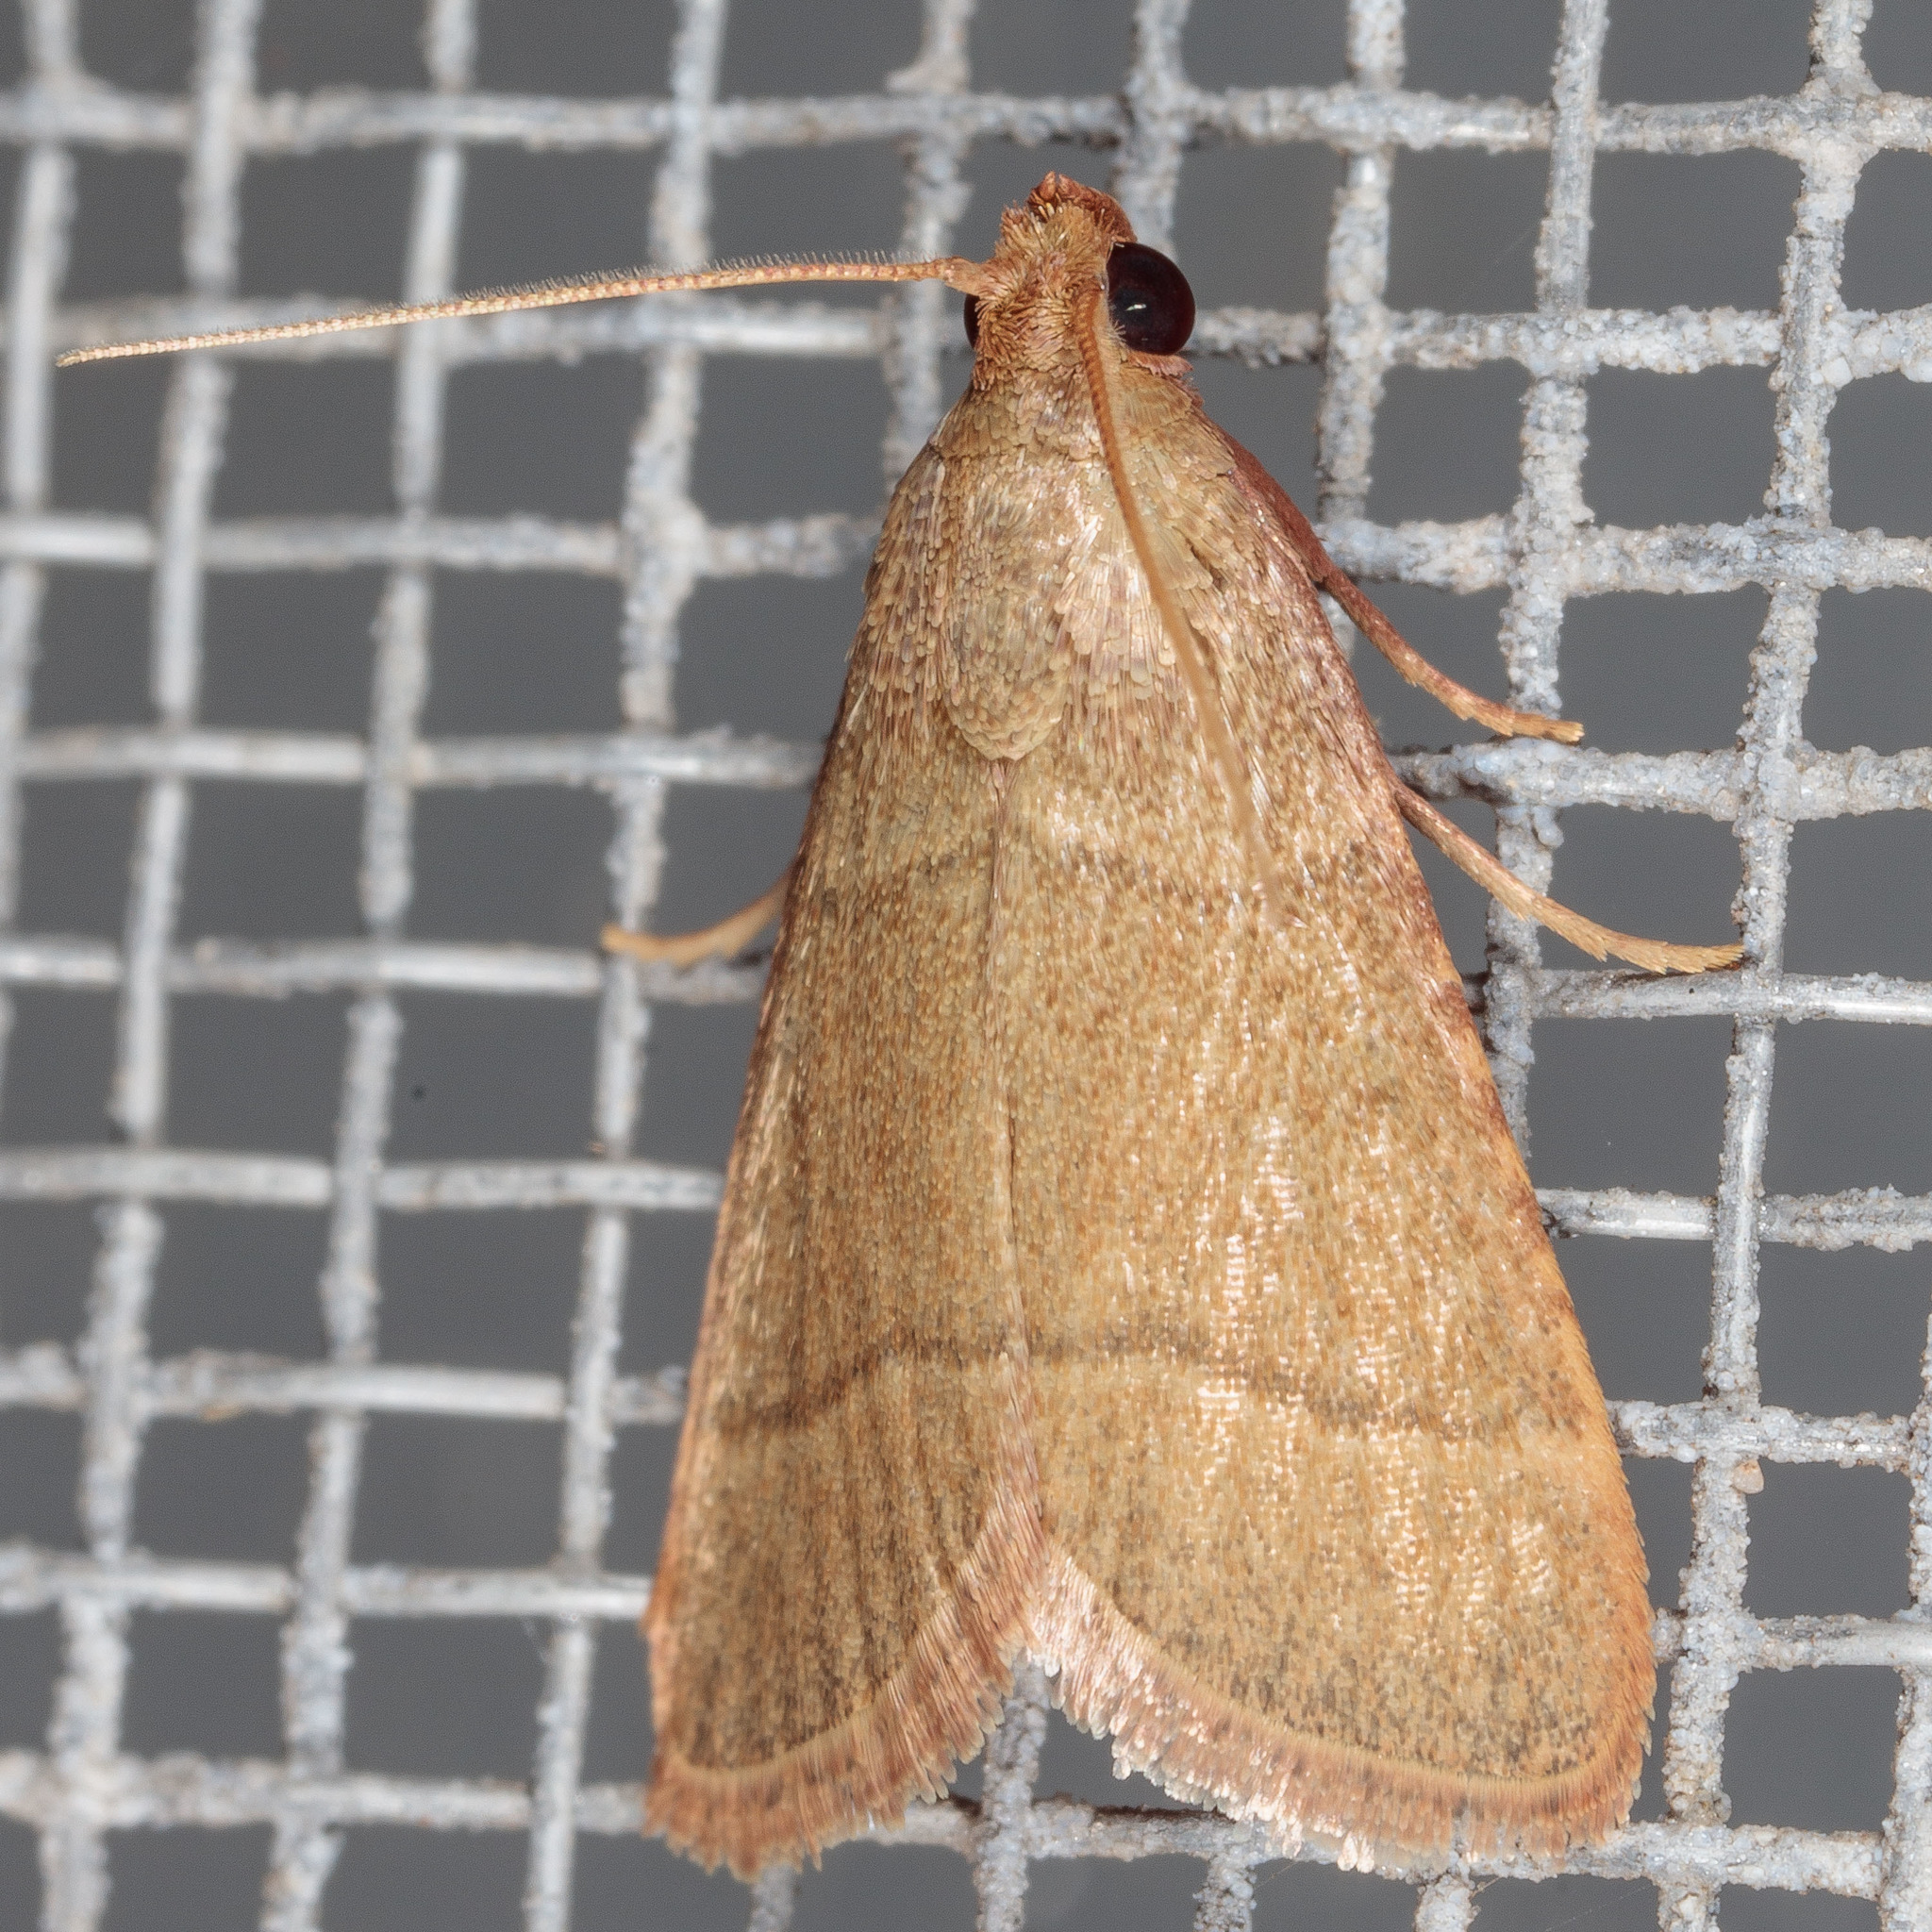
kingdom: Animalia
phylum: Arthropoda
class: Insecta
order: Lepidoptera
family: Pyralidae
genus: Hypsopygia
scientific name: Hypsopygia nostralis
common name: Southern hayworm moth
